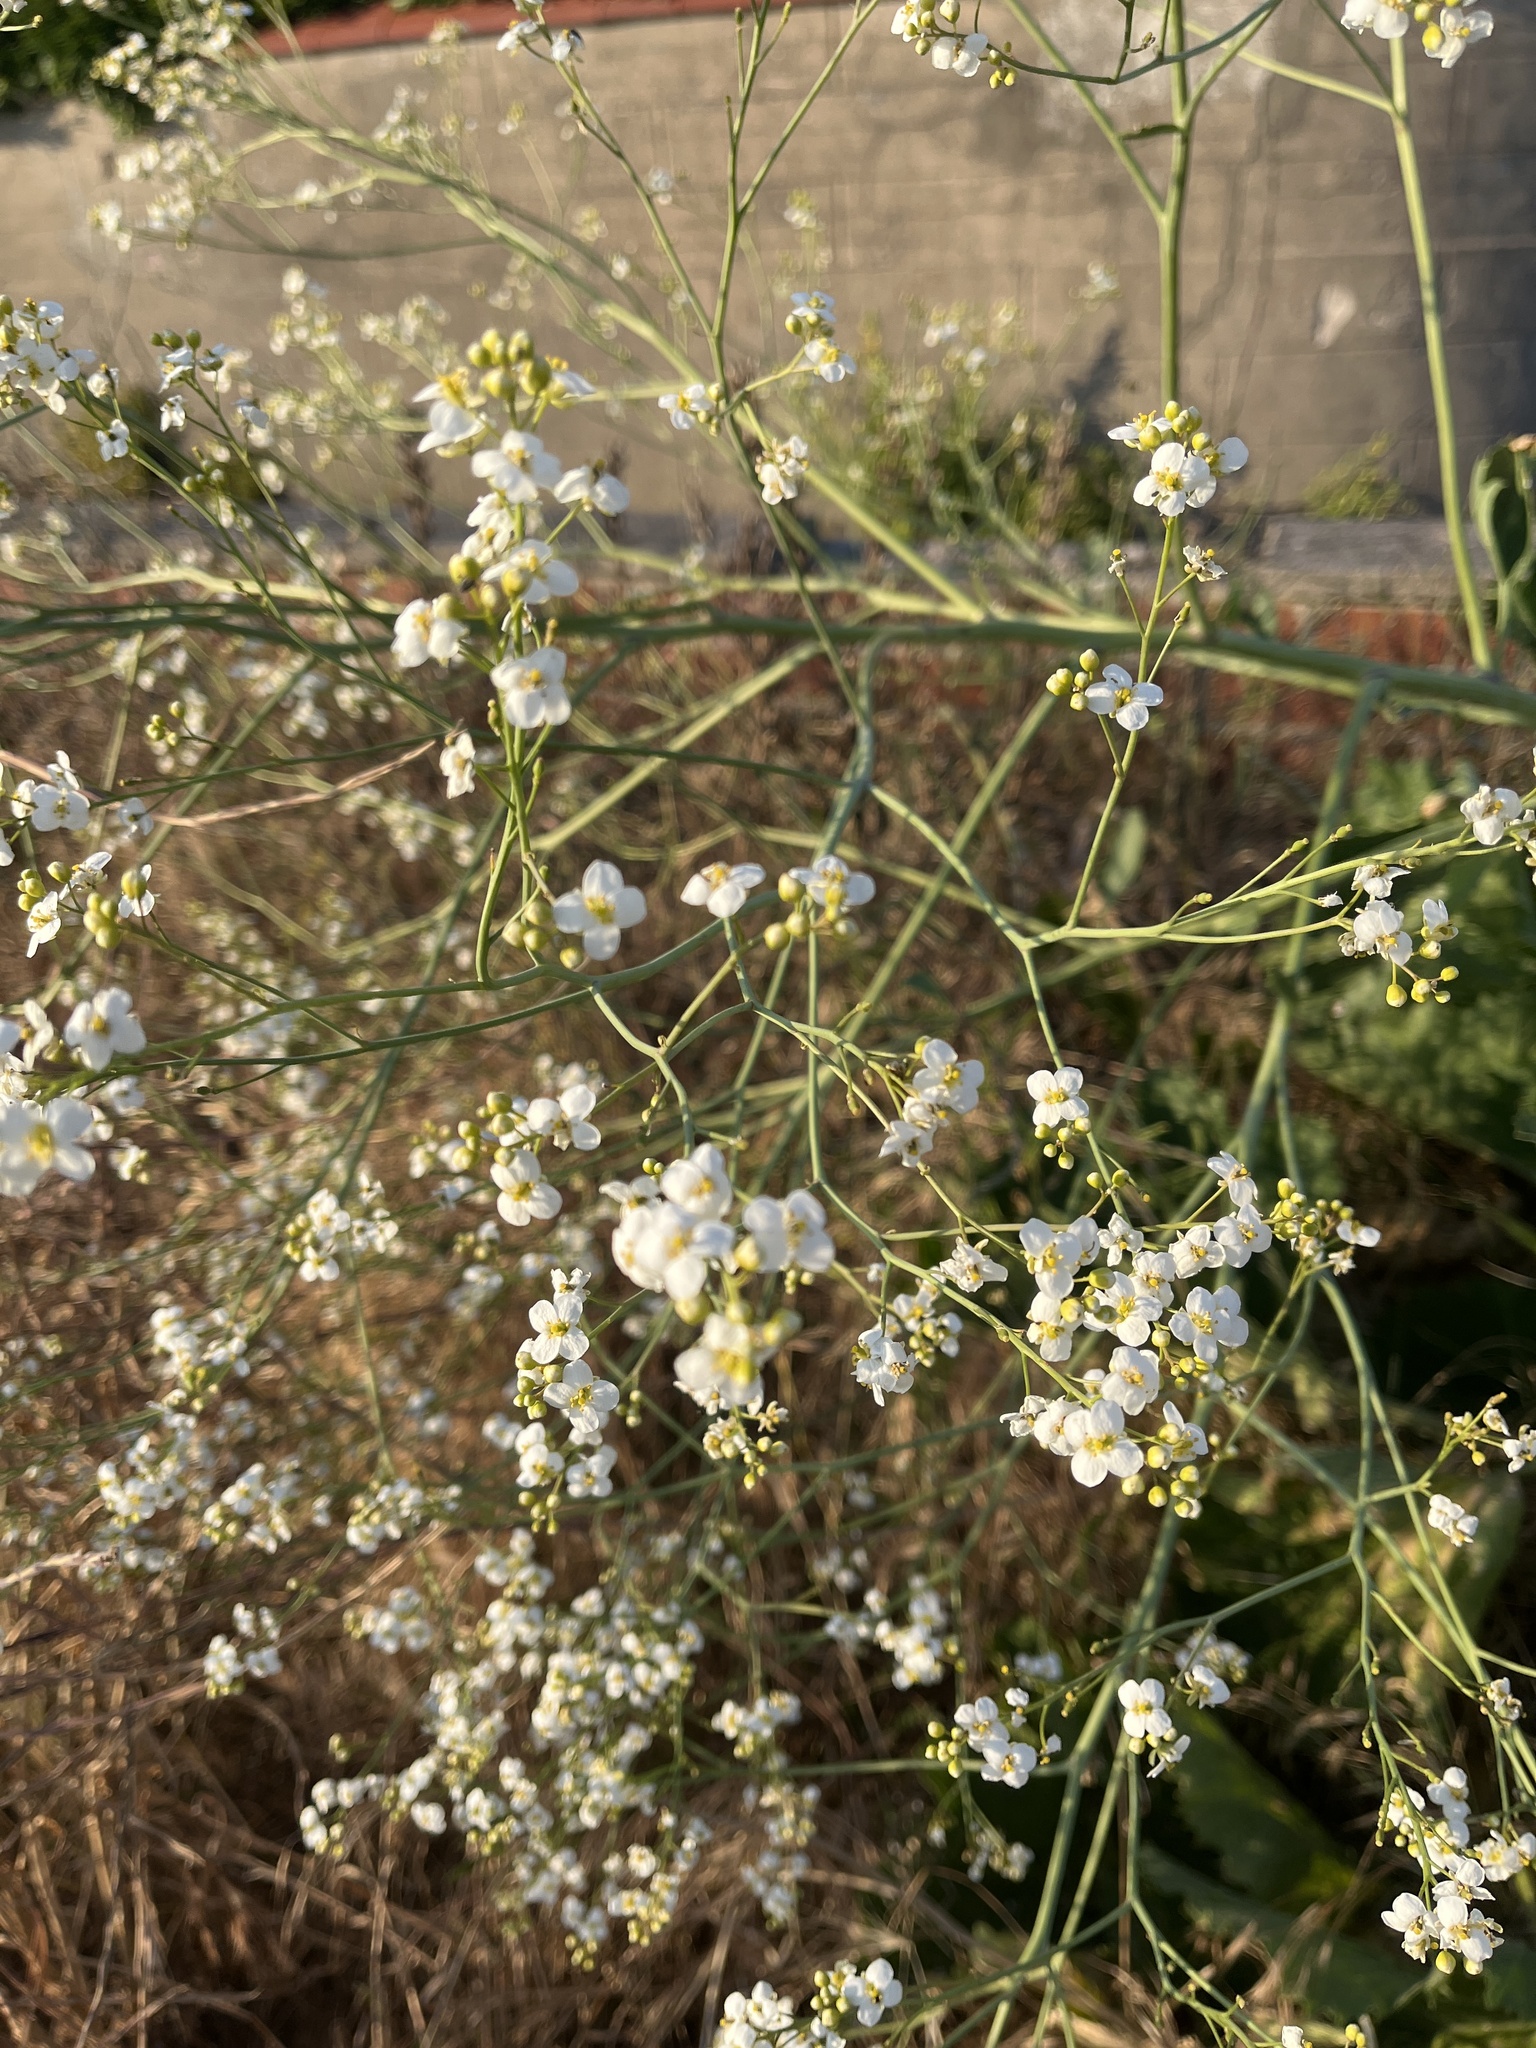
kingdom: Plantae
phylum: Tracheophyta
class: Magnoliopsida
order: Brassicales
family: Brassicaceae
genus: Crambe
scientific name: Crambe cordifolia
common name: Greater sea-kale
